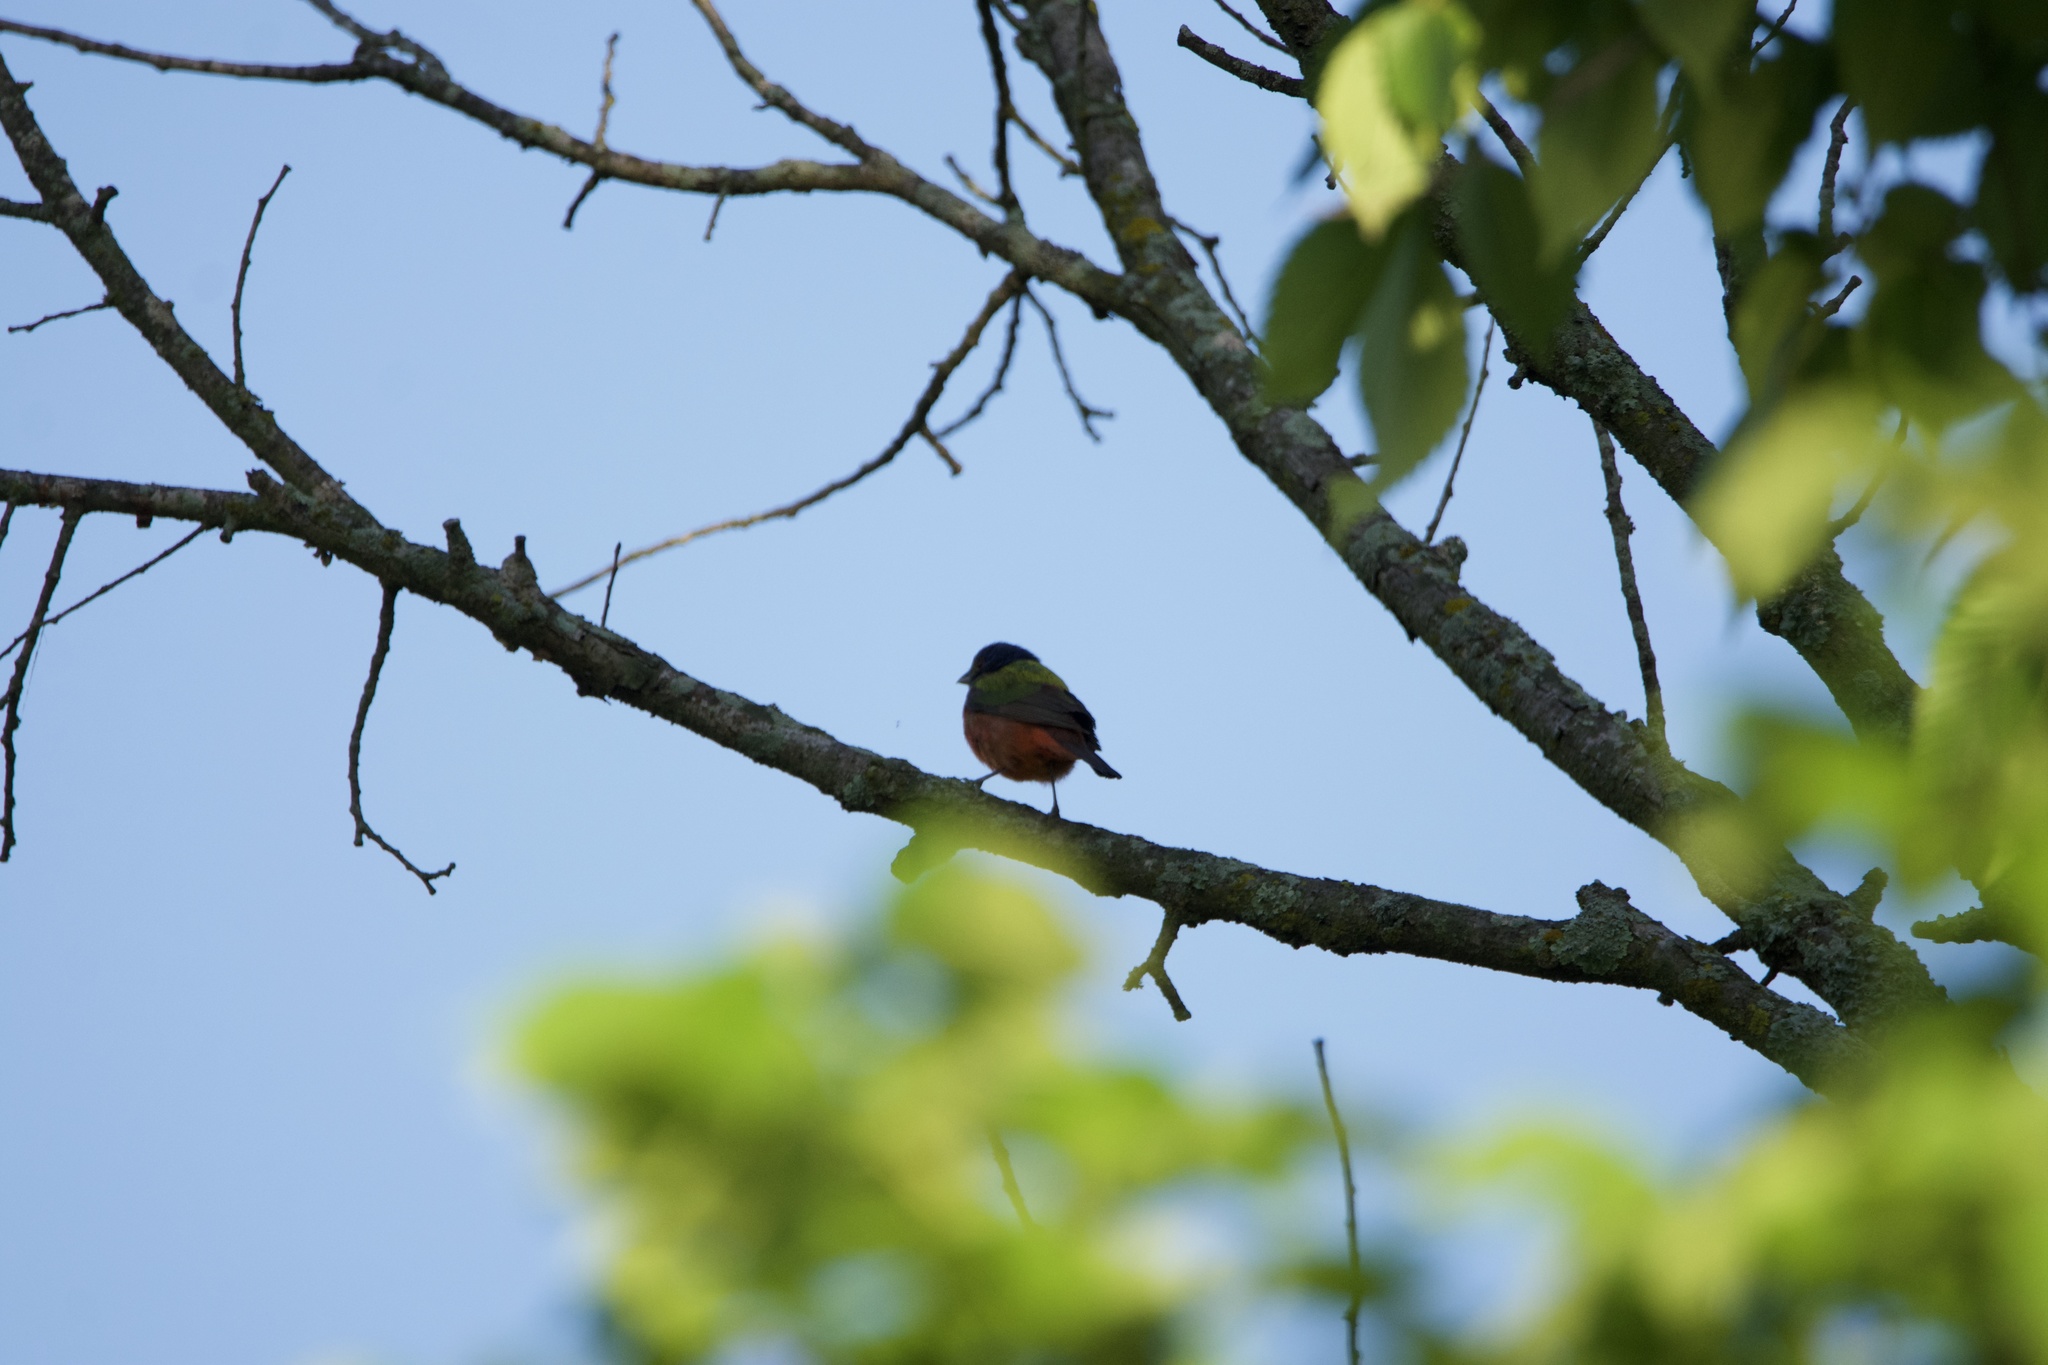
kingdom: Animalia
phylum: Chordata
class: Aves
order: Passeriformes
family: Cardinalidae
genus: Passerina
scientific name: Passerina ciris
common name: Painted bunting
